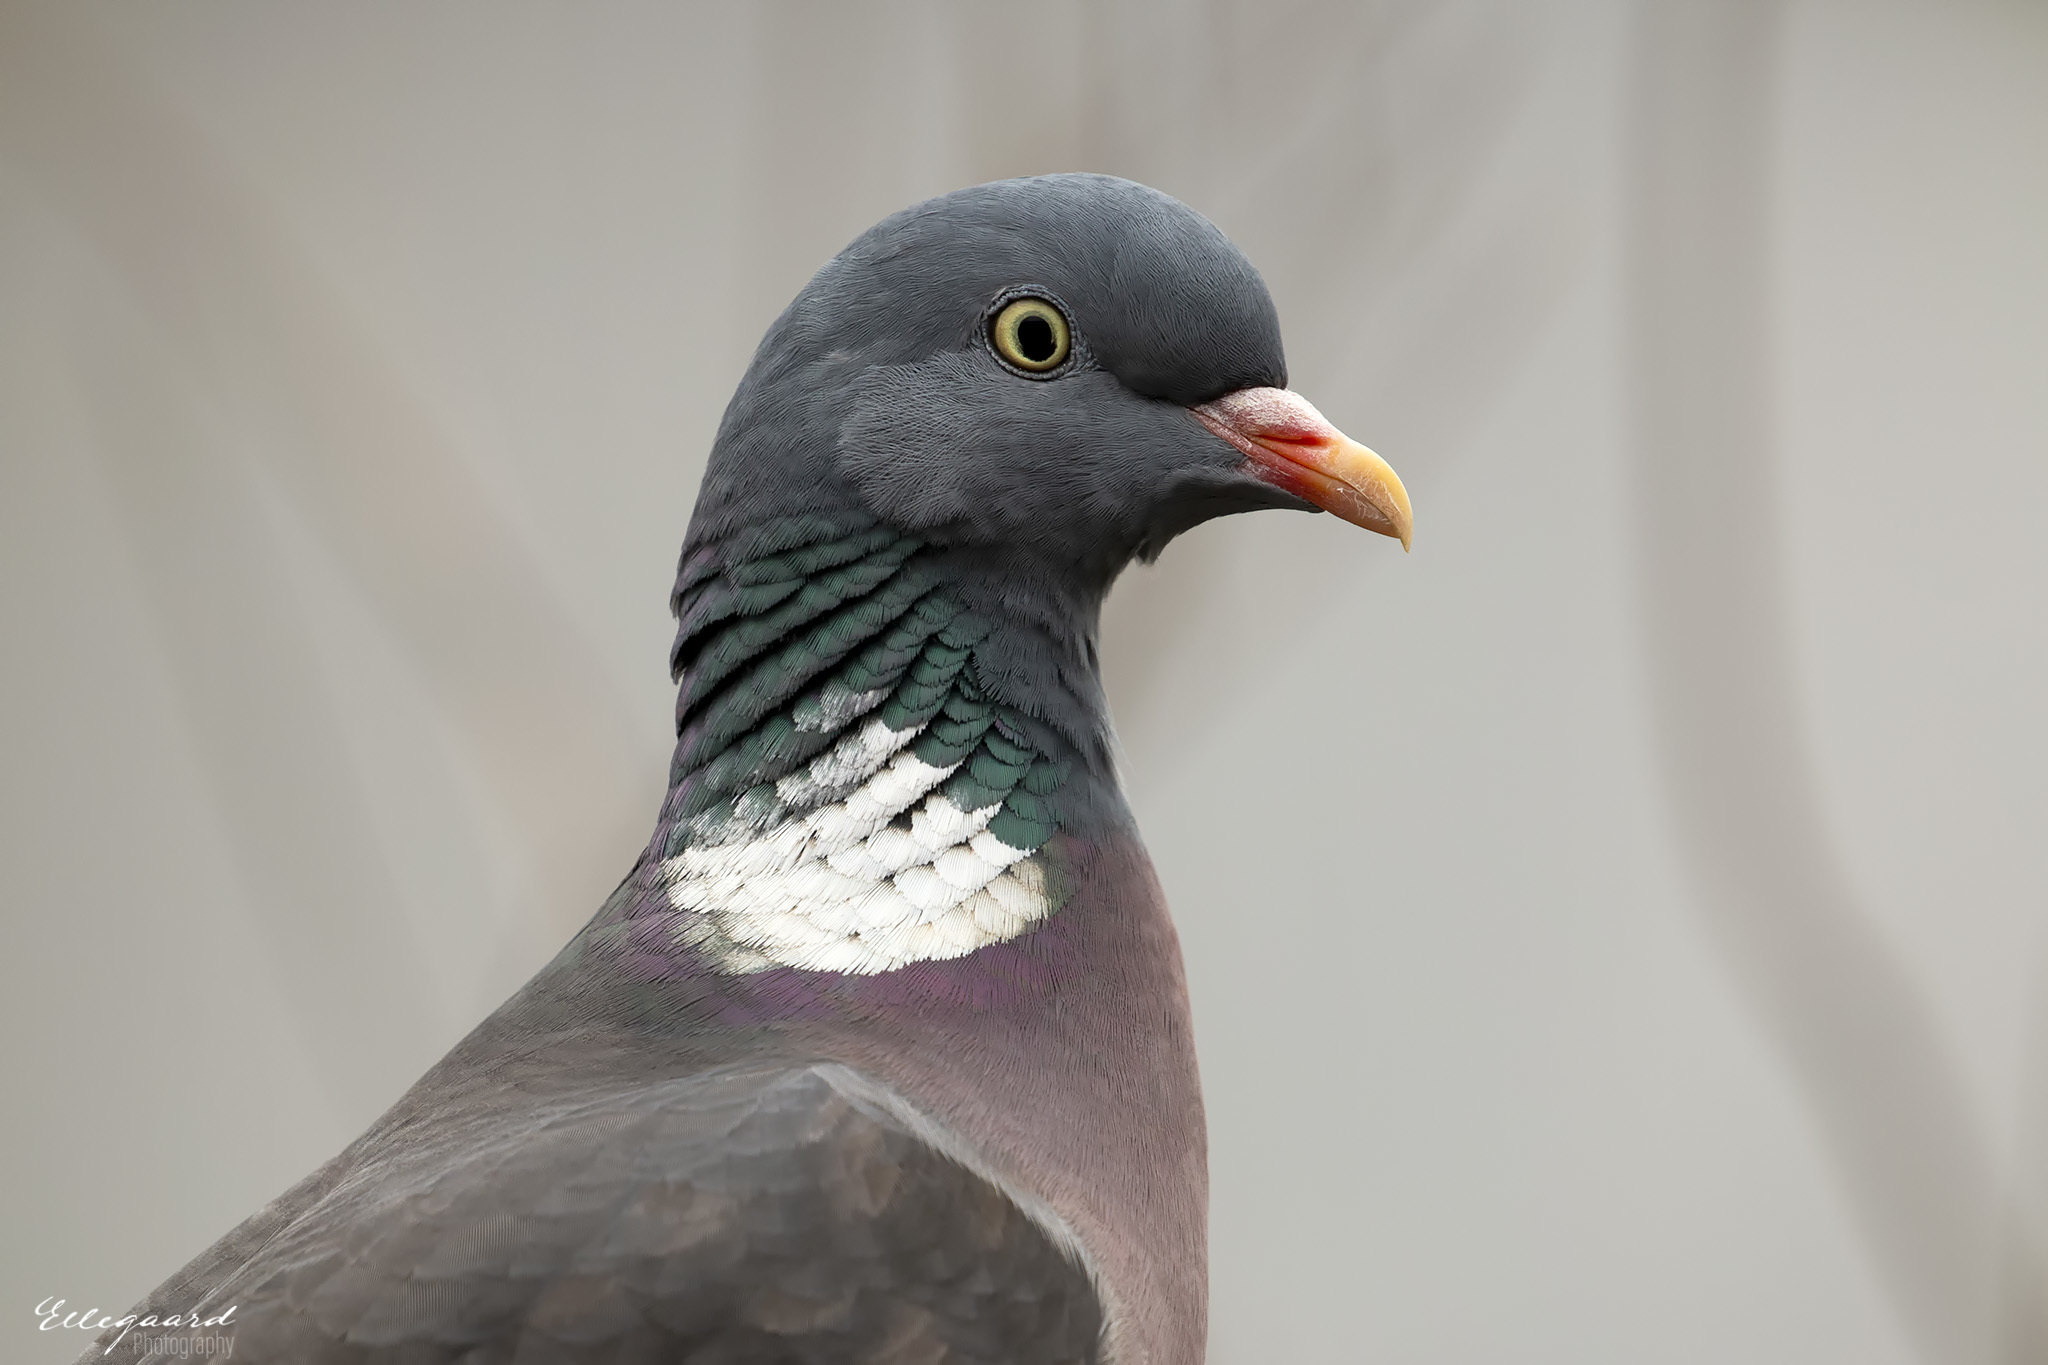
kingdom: Animalia
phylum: Chordata
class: Aves
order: Columbiformes
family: Columbidae
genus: Columba
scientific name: Columba palumbus
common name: Common wood pigeon
